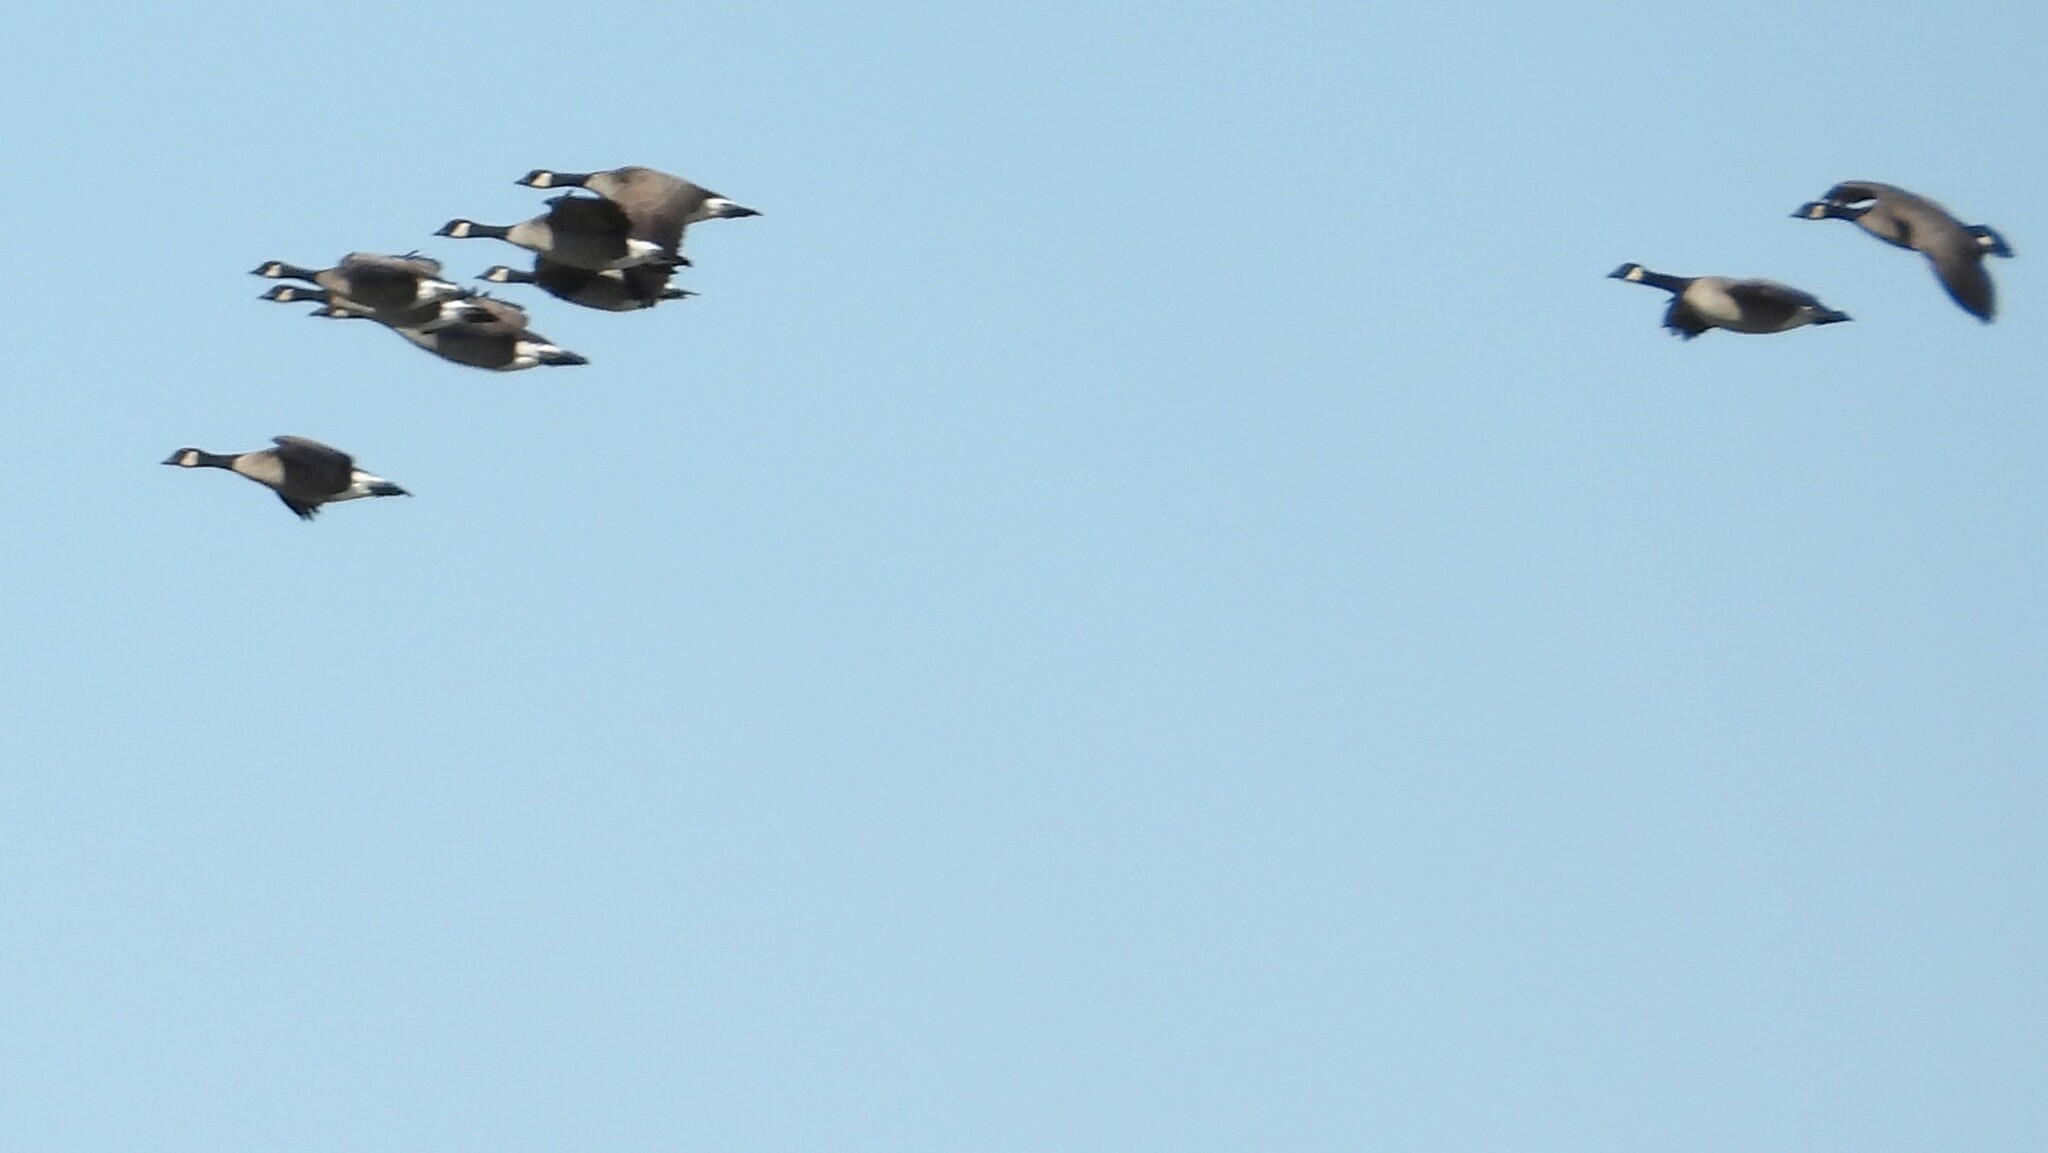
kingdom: Animalia
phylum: Chordata
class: Aves
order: Anseriformes
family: Anatidae
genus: Branta
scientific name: Branta hutchinsii
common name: Cackling goose
